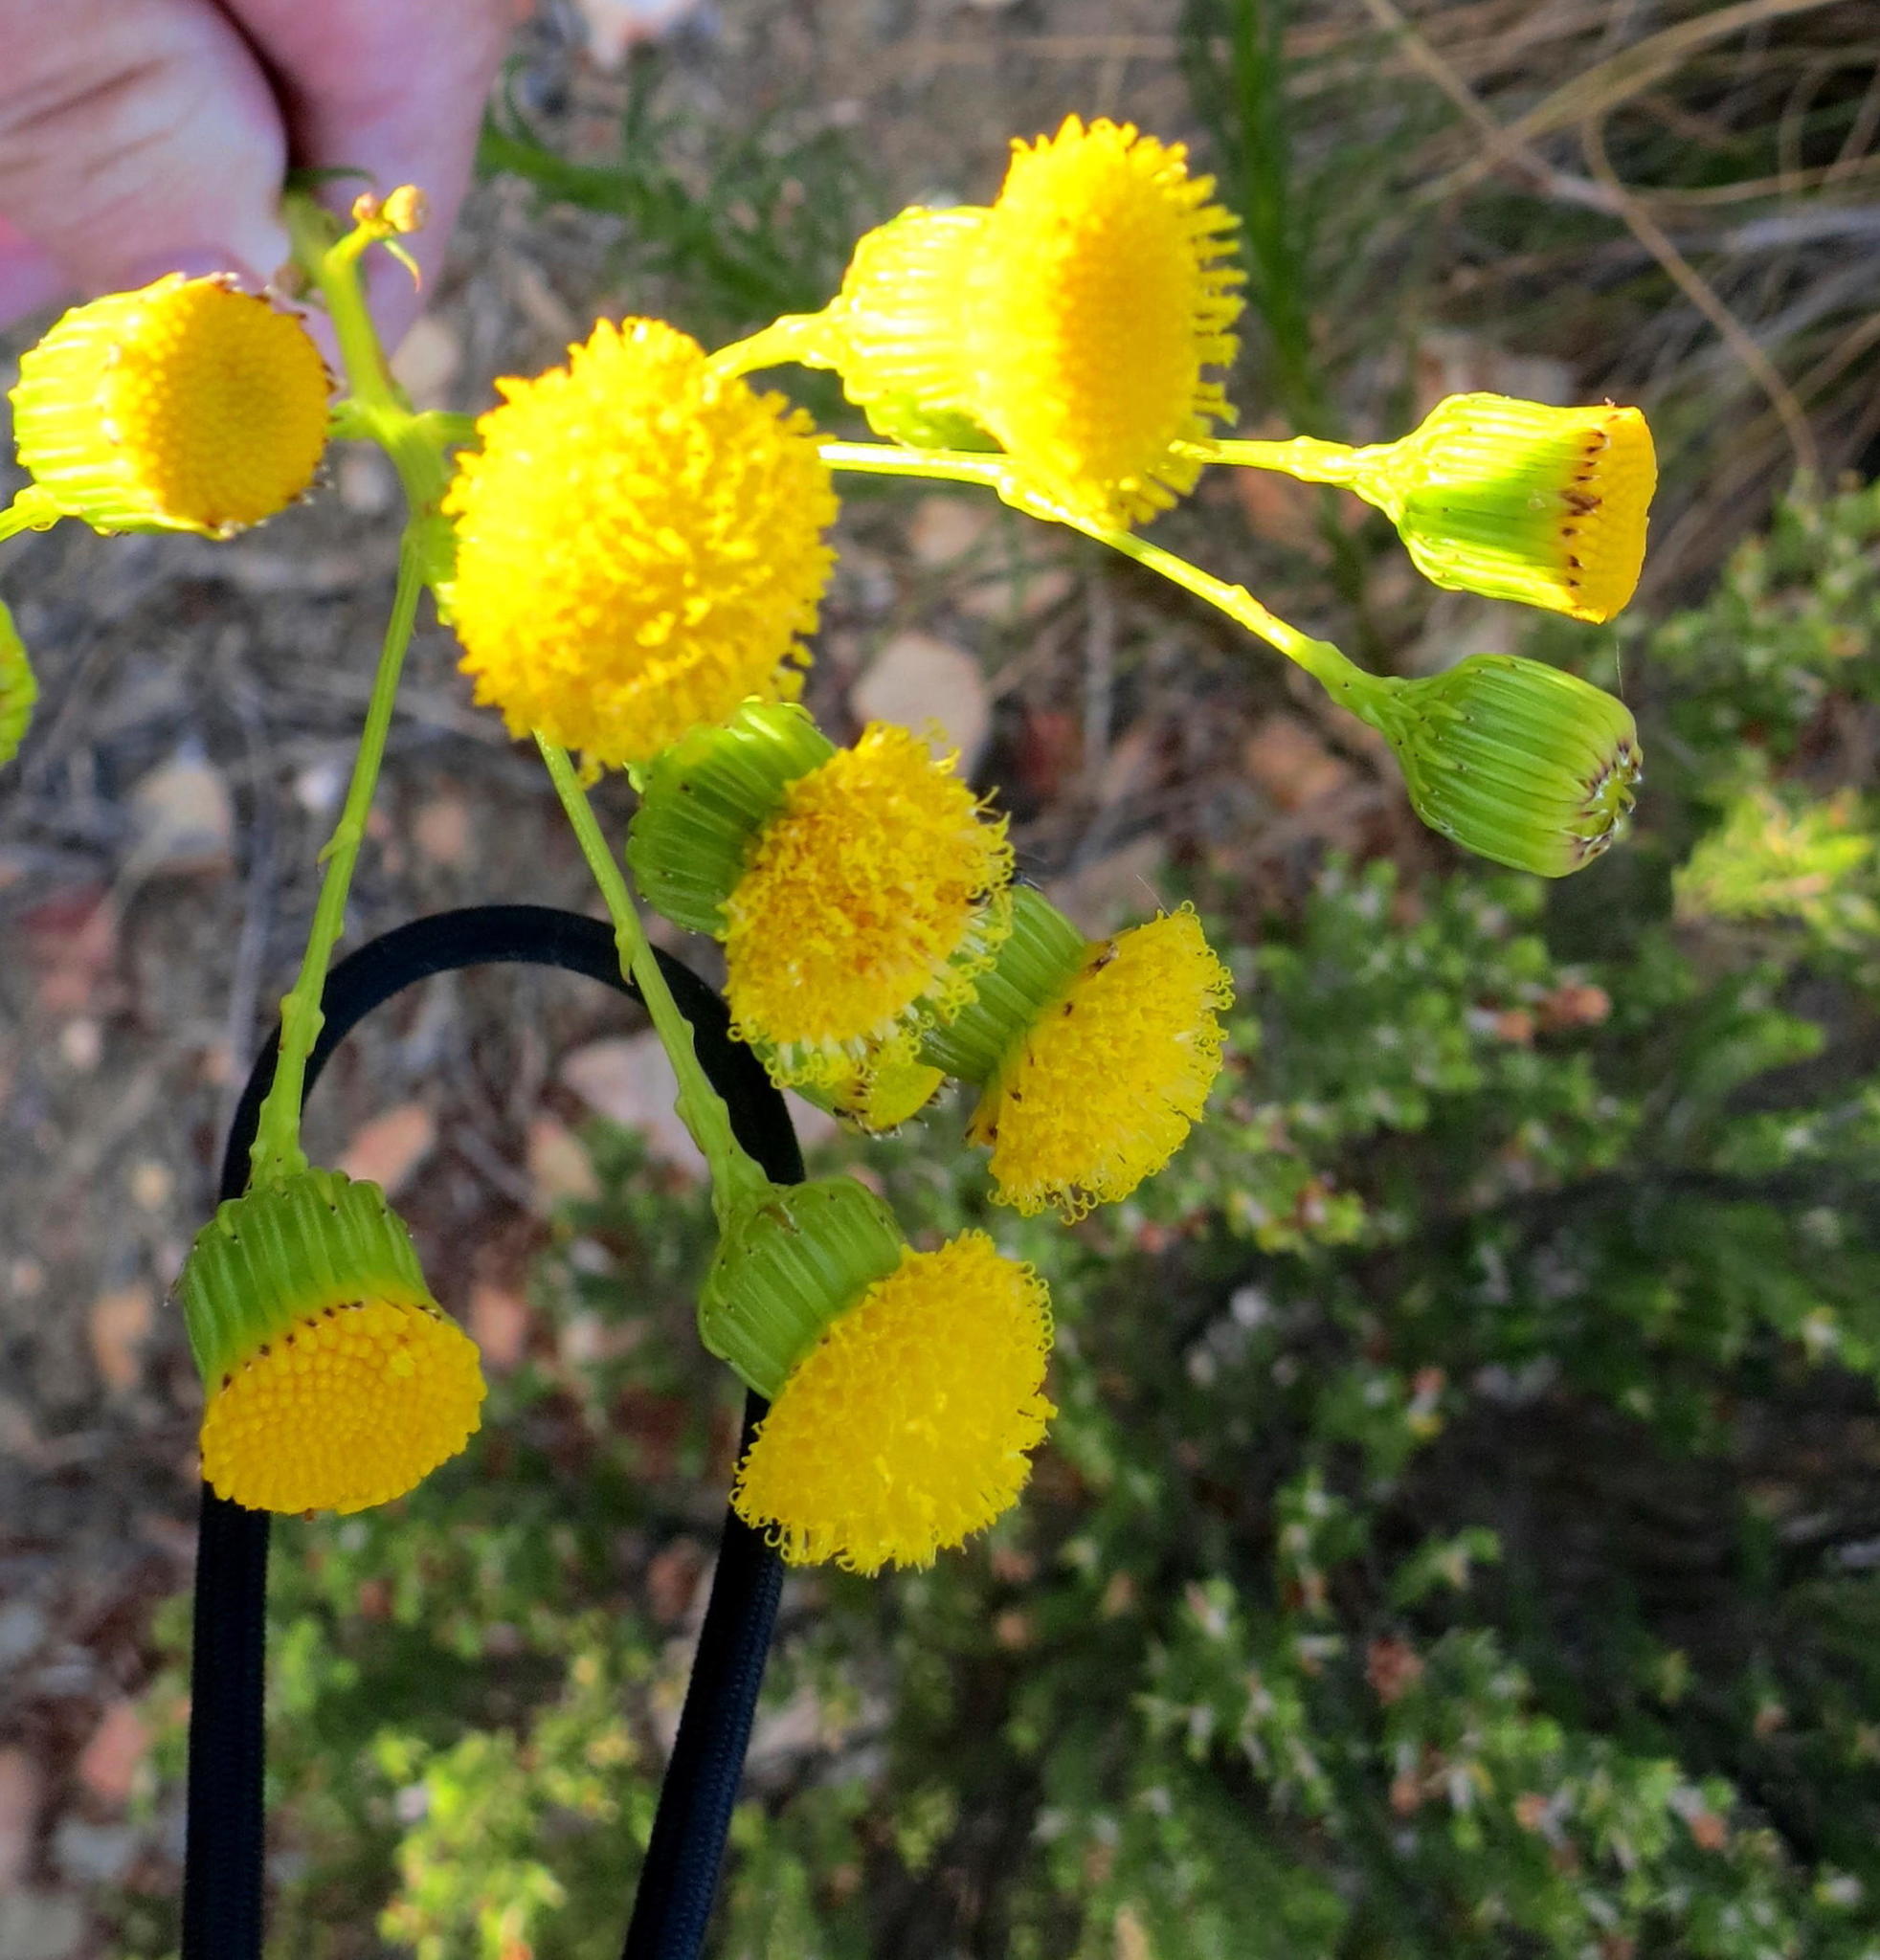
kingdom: Plantae
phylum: Tracheophyta
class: Magnoliopsida
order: Asterales
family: Asteraceae
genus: Senecio
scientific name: Senecio paniculatus
